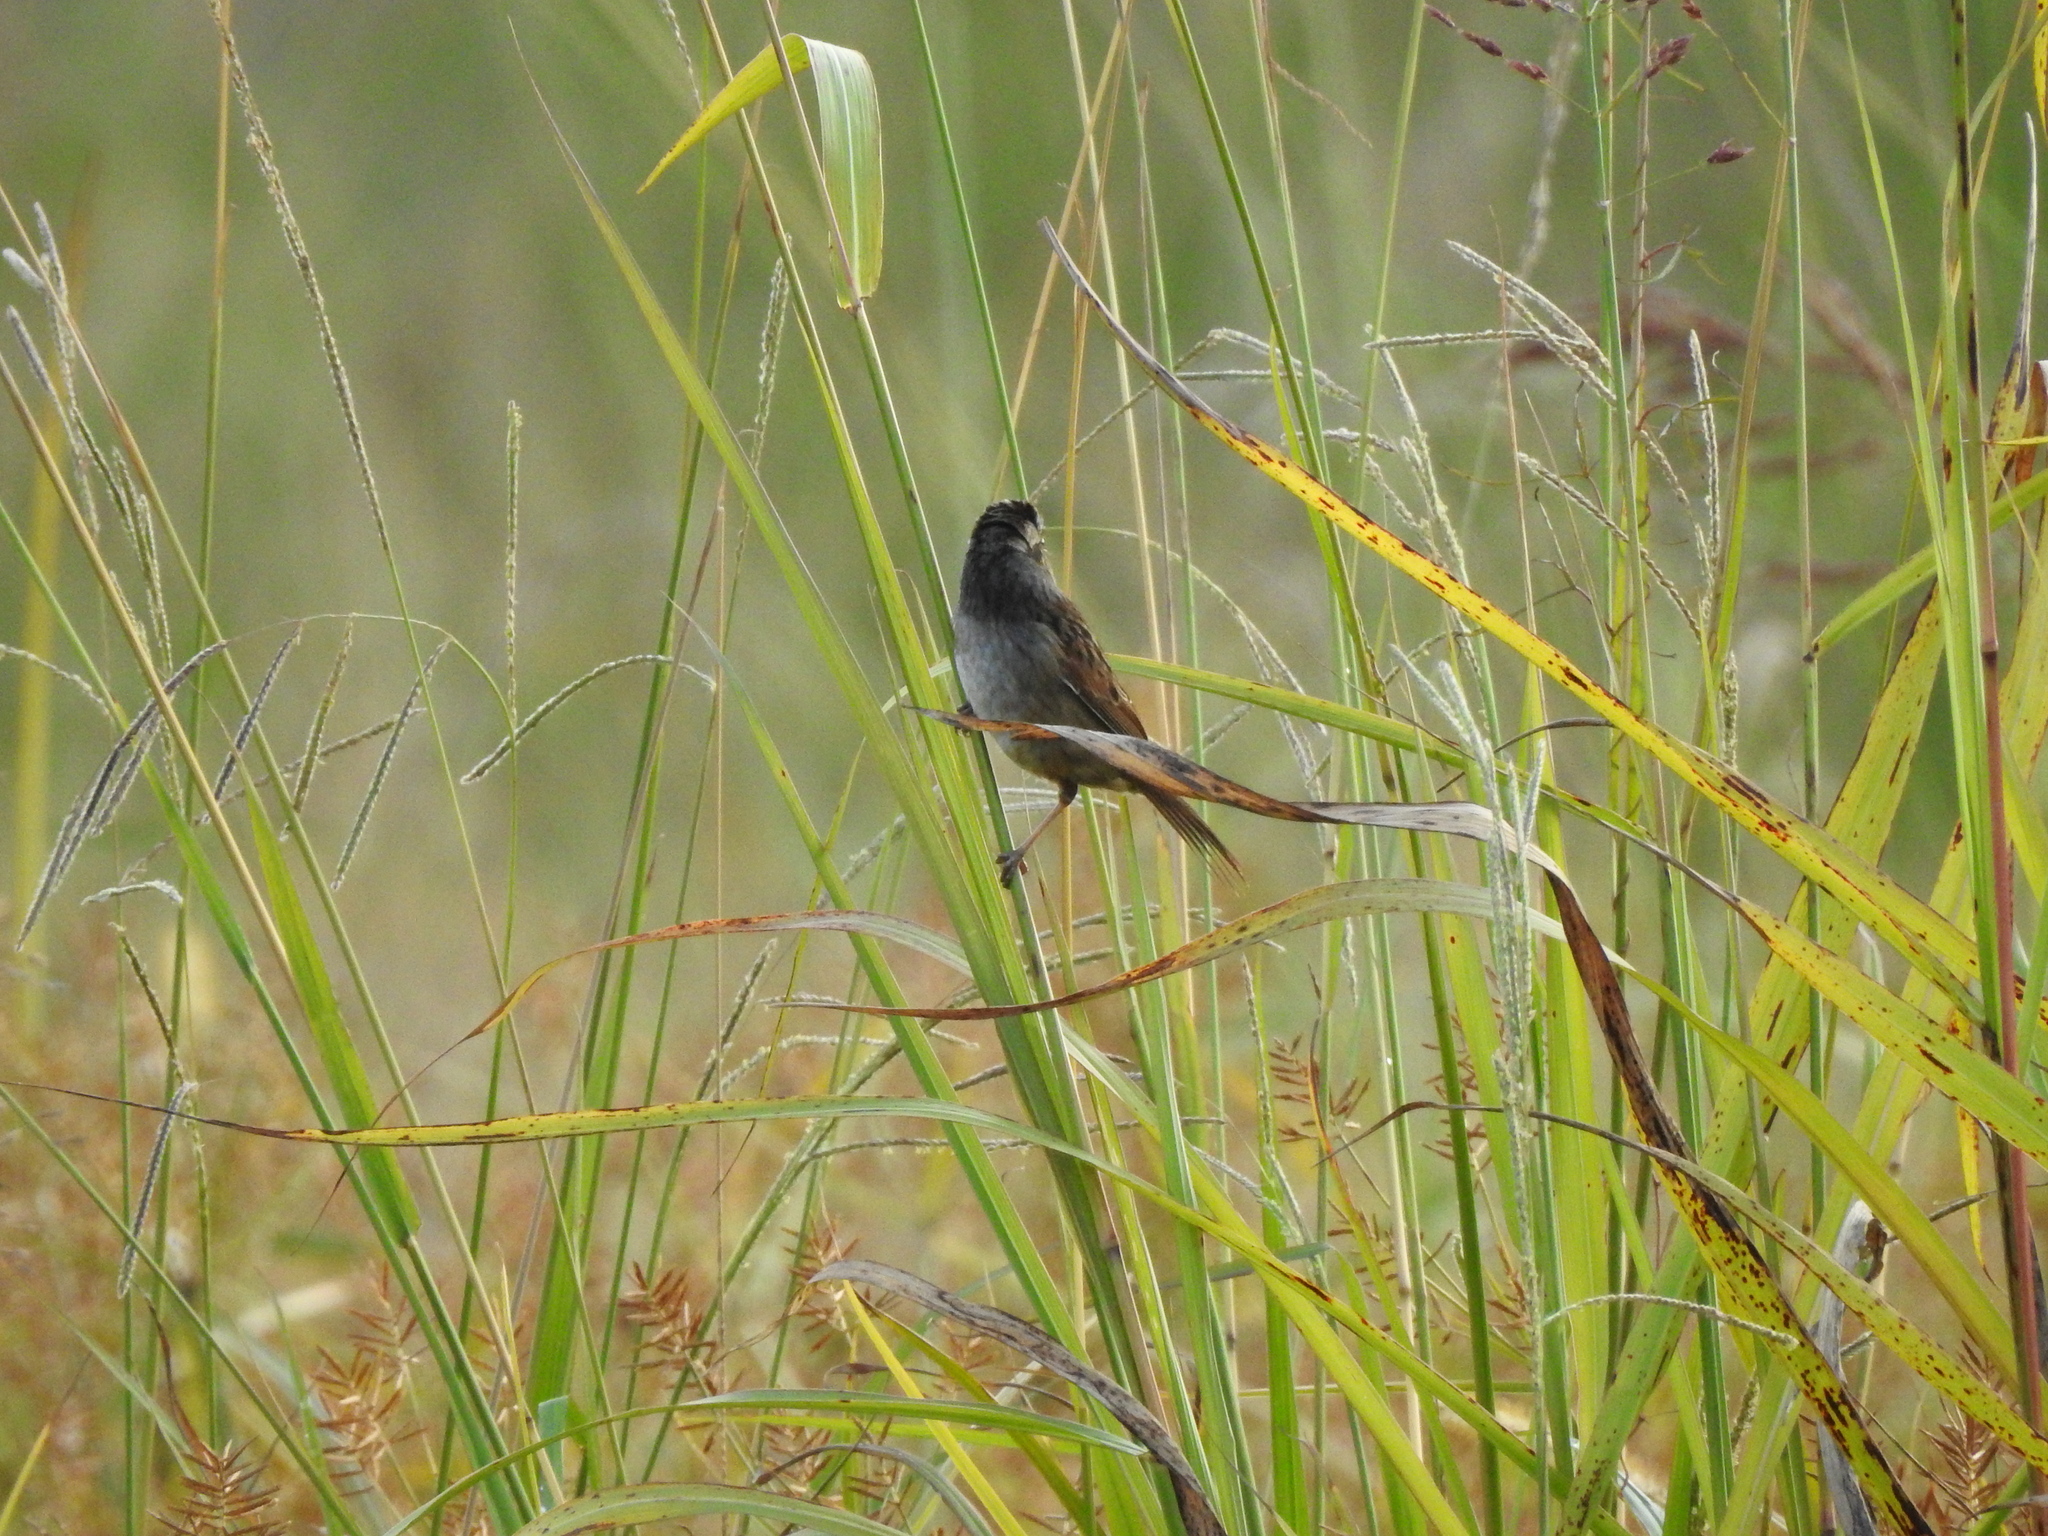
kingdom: Animalia
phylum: Chordata
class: Aves
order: Passeriformes
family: Passerellidae
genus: Melospiza
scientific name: Melospiza georgiana
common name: Swamp sparrow
